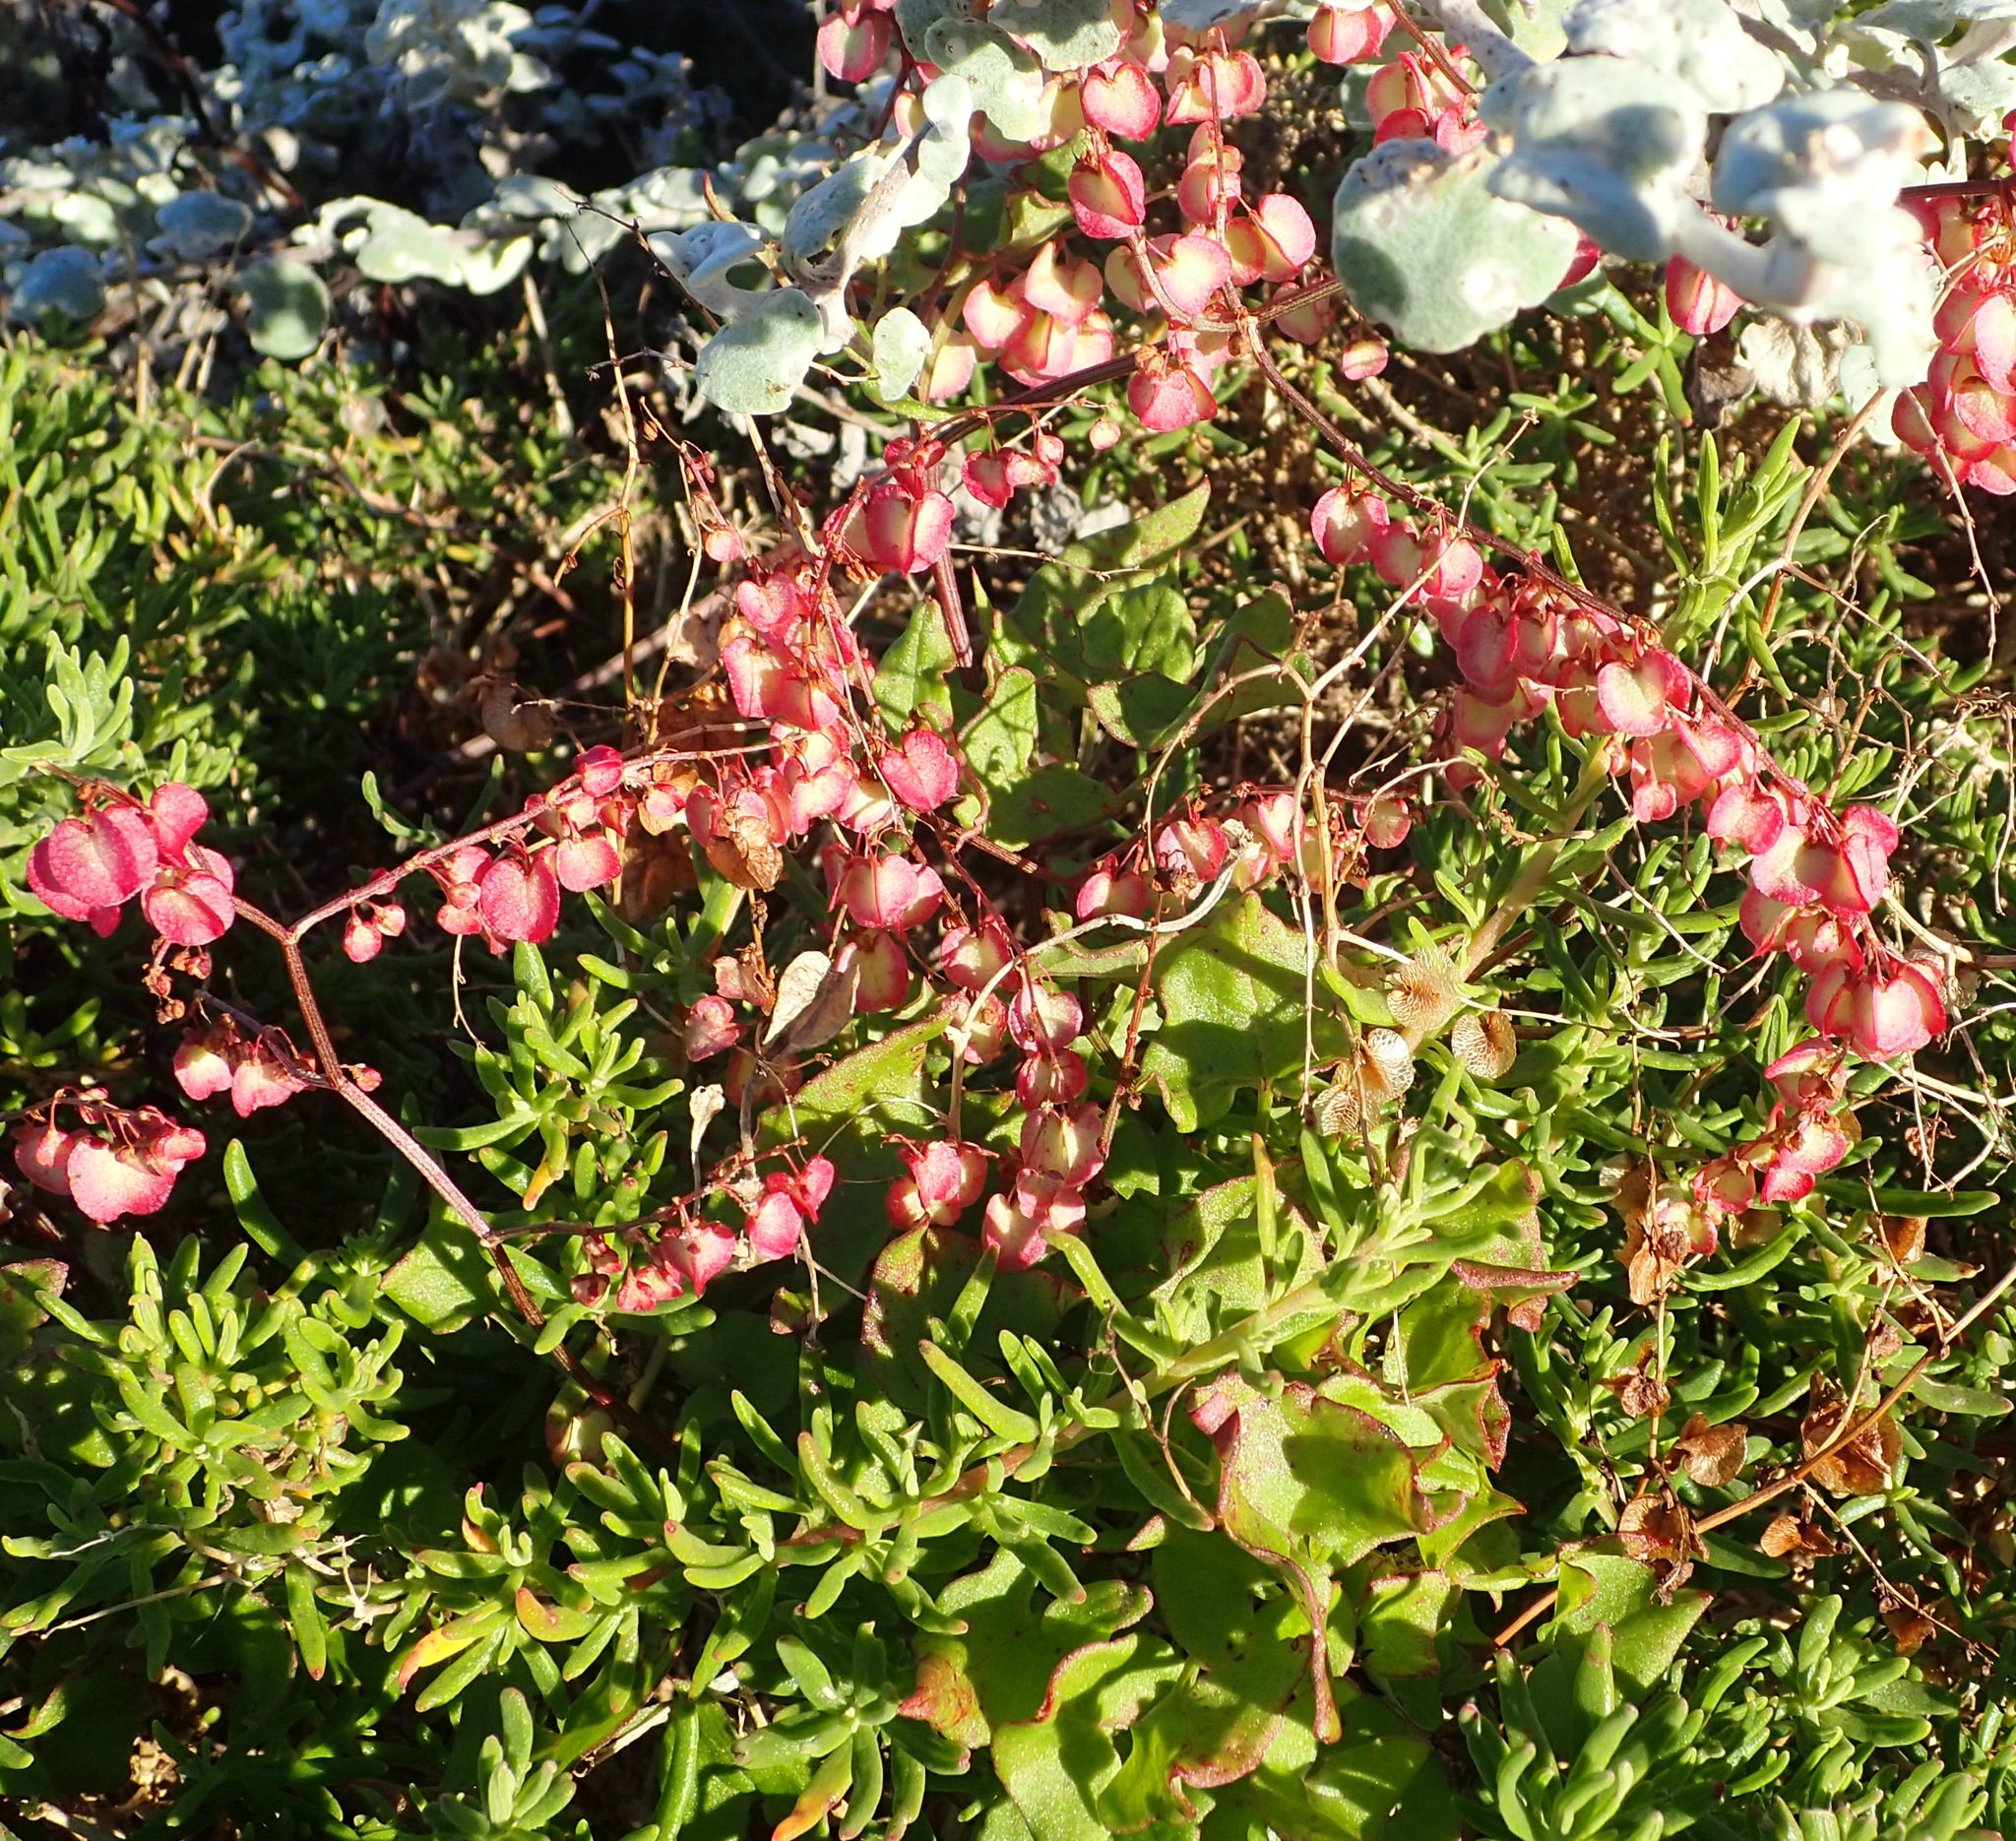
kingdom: Plantae
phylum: Tracheophyta
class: Magnoliopsida
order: Caryophyllales
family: Polygonaceae
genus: Rumex
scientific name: Rumex sagittatus
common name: Climbing dock
